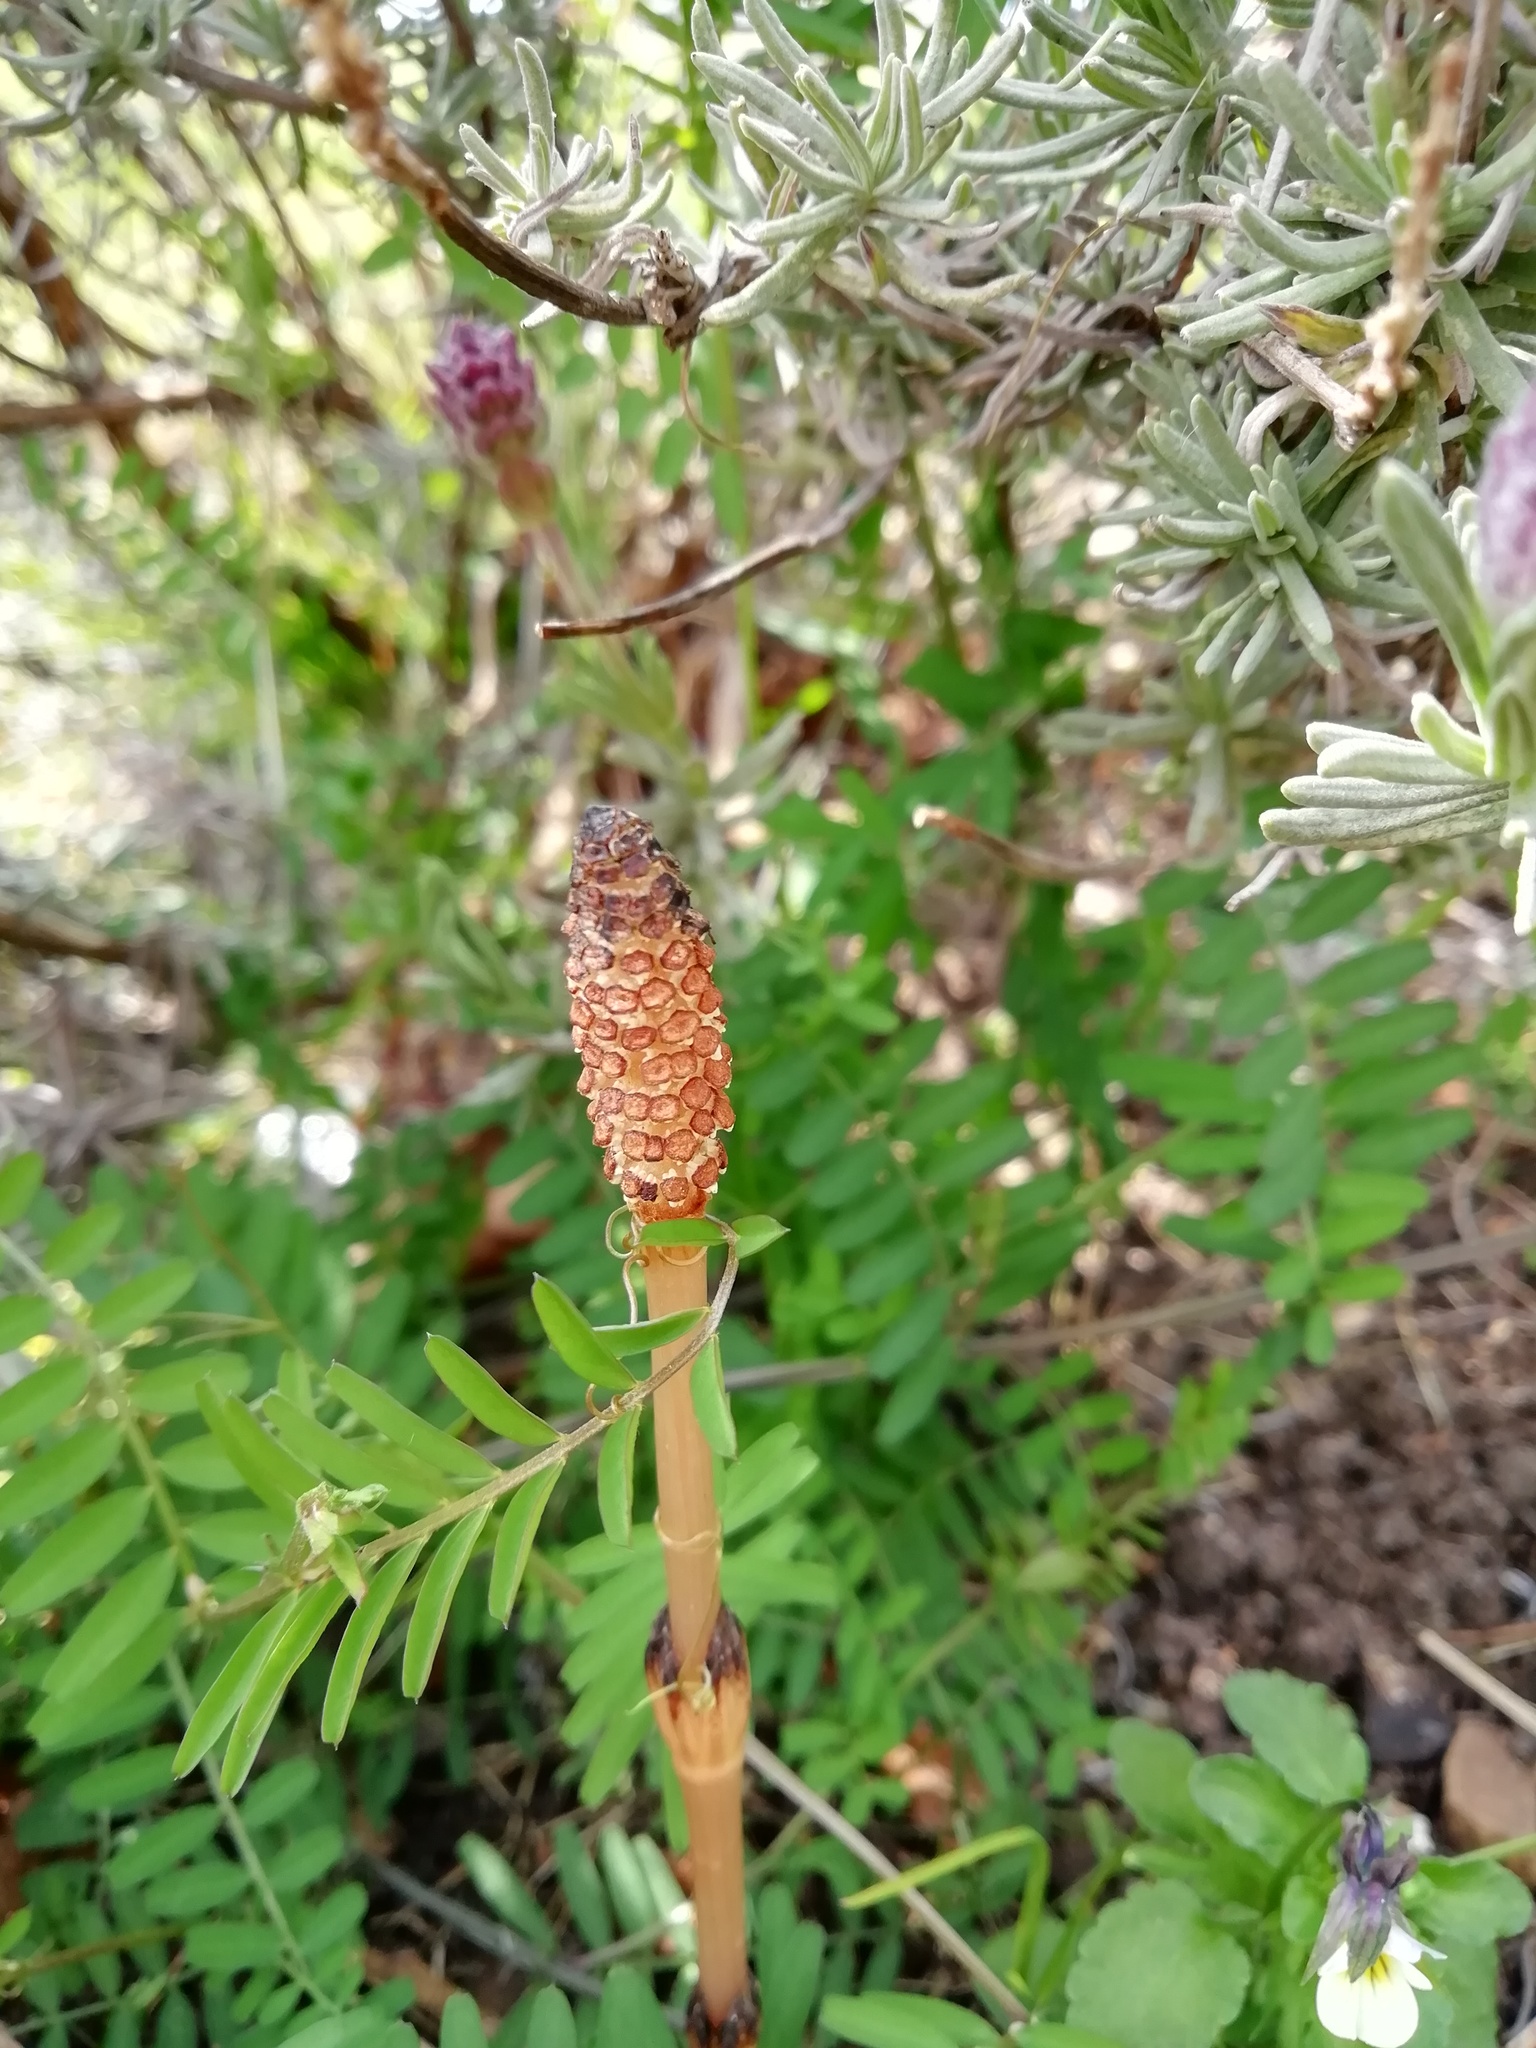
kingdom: Plantae
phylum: Tracheophyta
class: Polypodiopsida
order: Equisetales
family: Equisetaceae
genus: Equisetum
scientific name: Equisetum arvense
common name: Field horsetail
